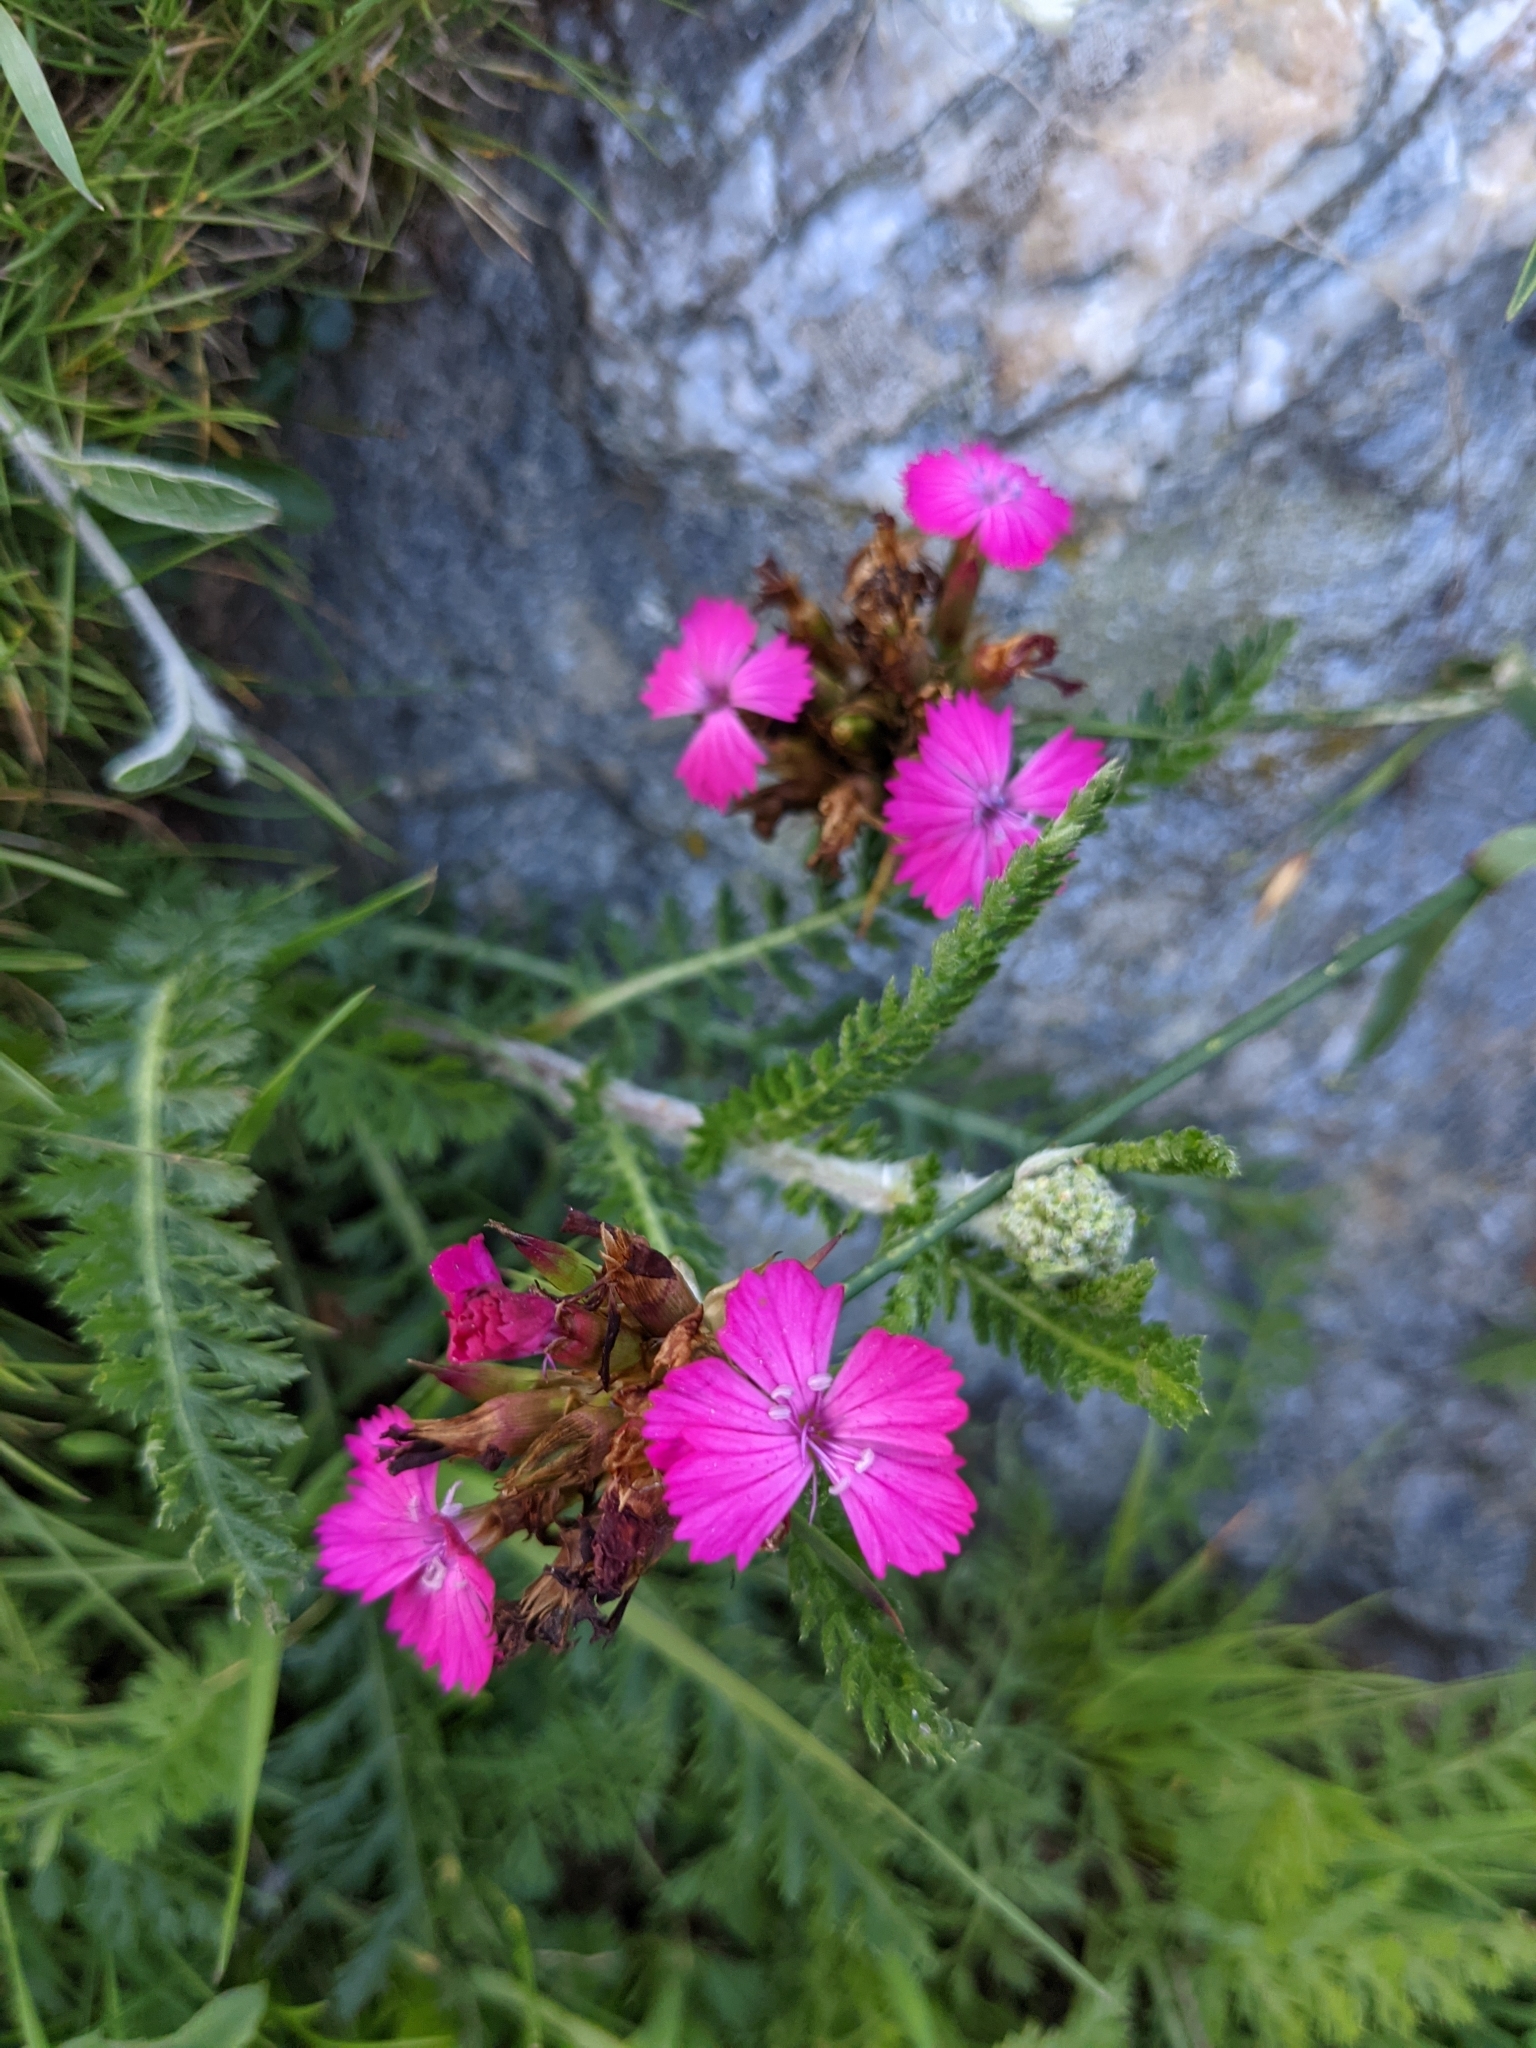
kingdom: Plantae
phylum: Tracheophyta
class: Magnoliopsida
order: Caryophyllales
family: Caryophyllaceae
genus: Dianthus
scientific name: Dianthus carthusianorum
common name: Carthusian pink
